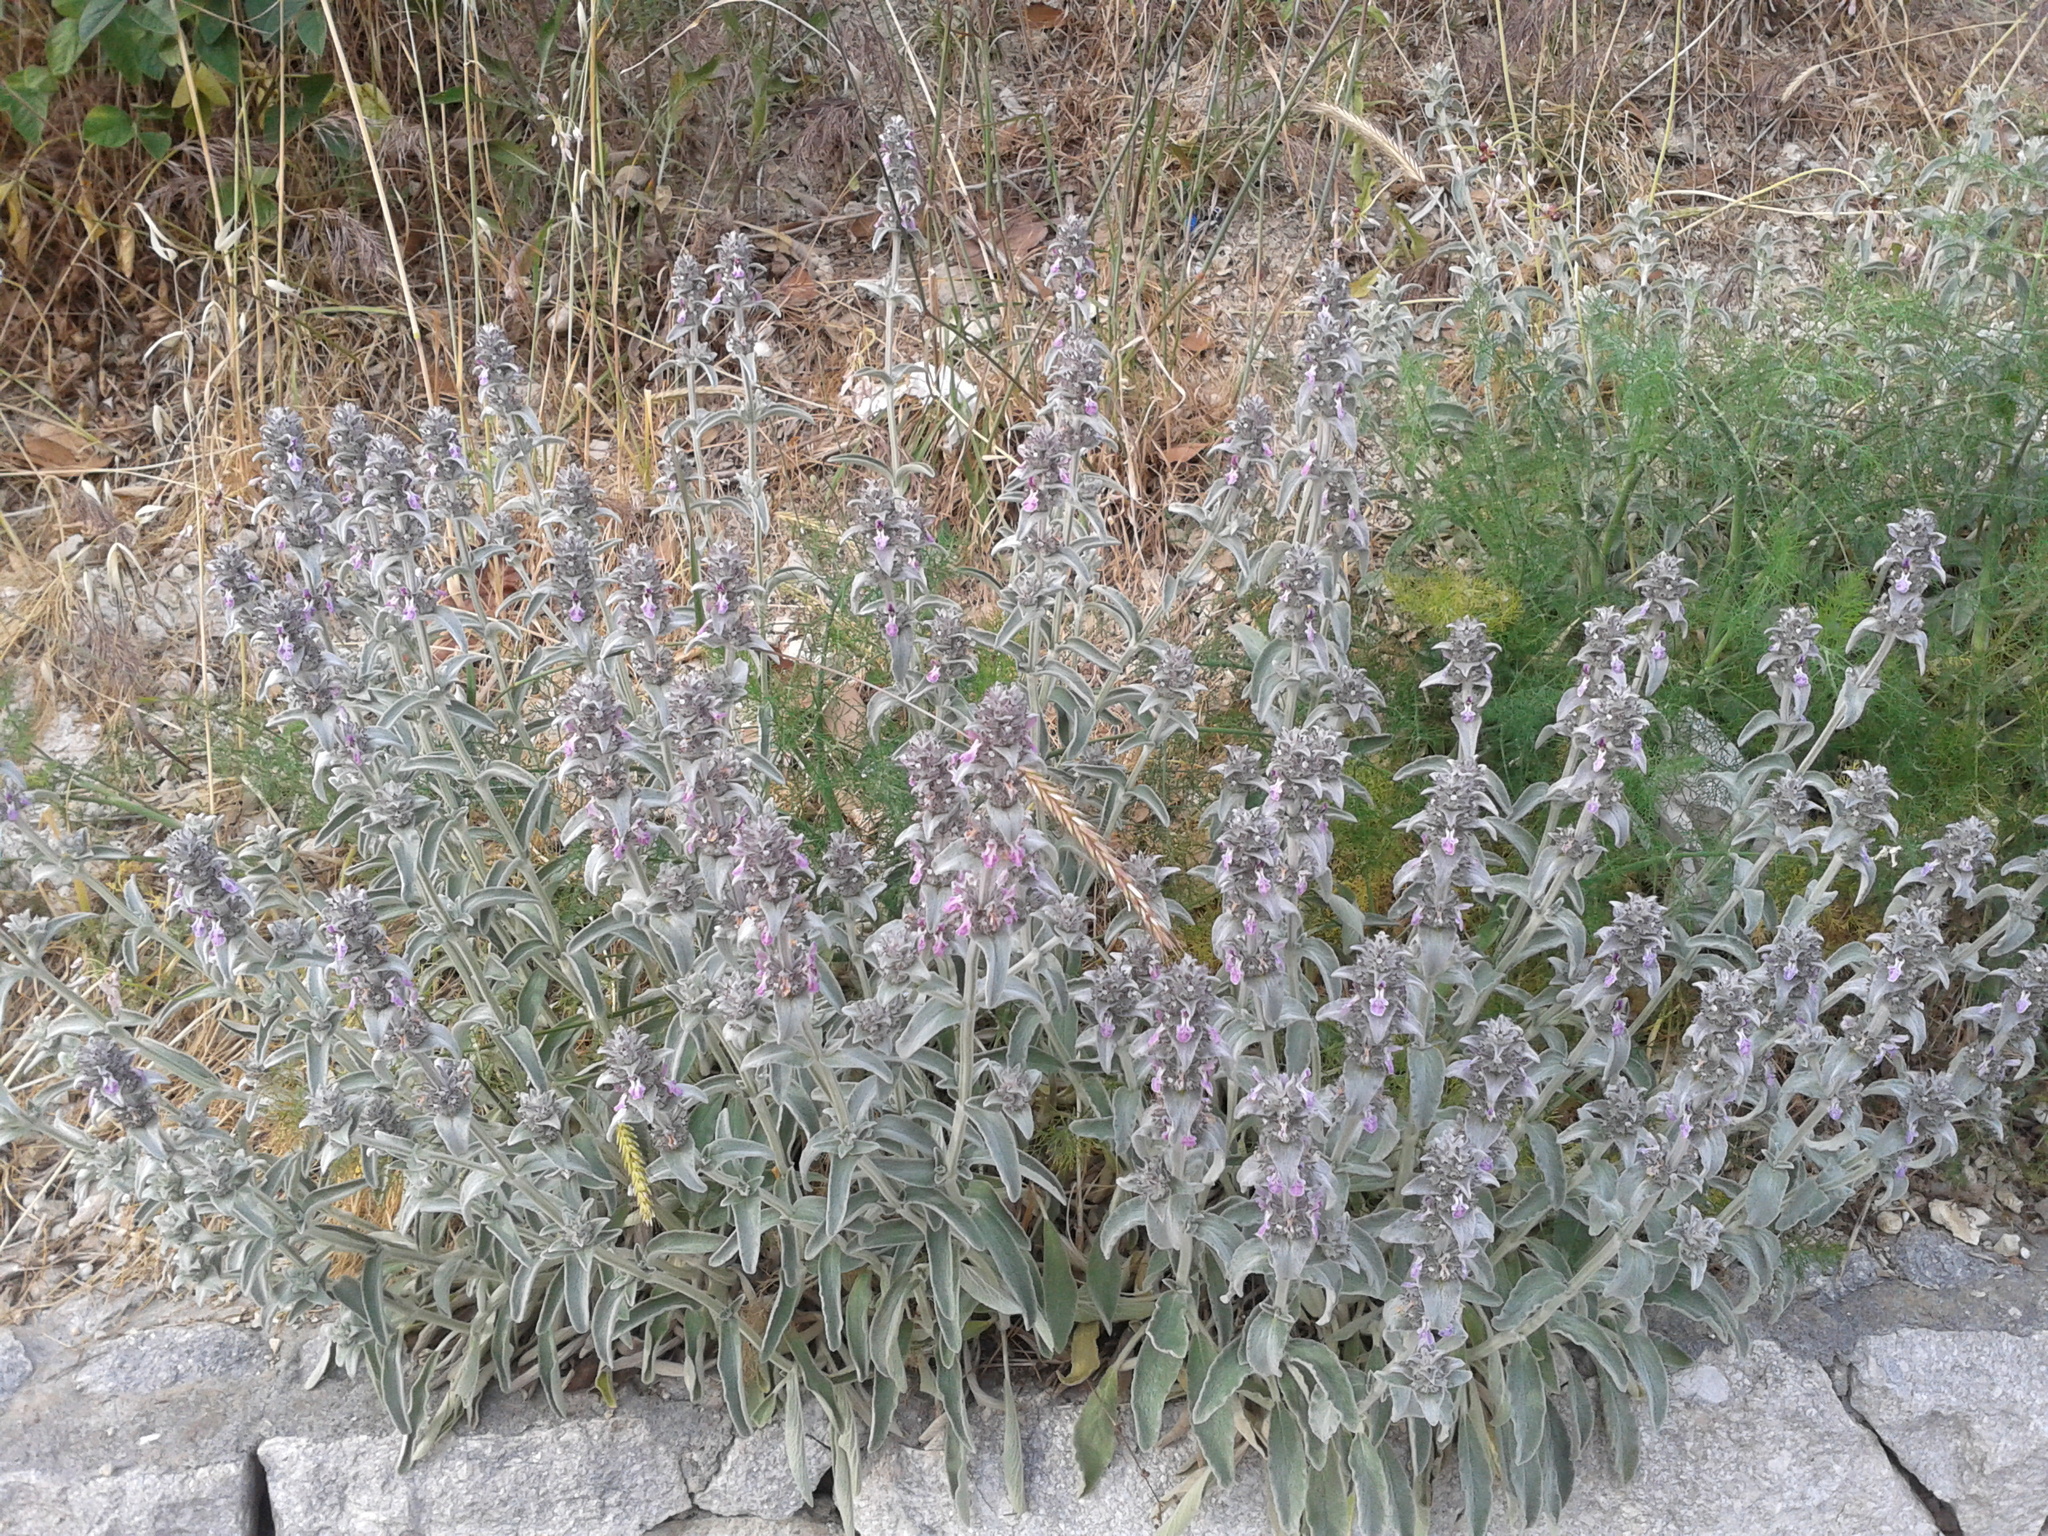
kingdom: Plantae
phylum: Tracheophyta
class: Magnoliopsida
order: Lamiales
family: Lamiaceae
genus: Stachys
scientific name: Stachys thirkei
